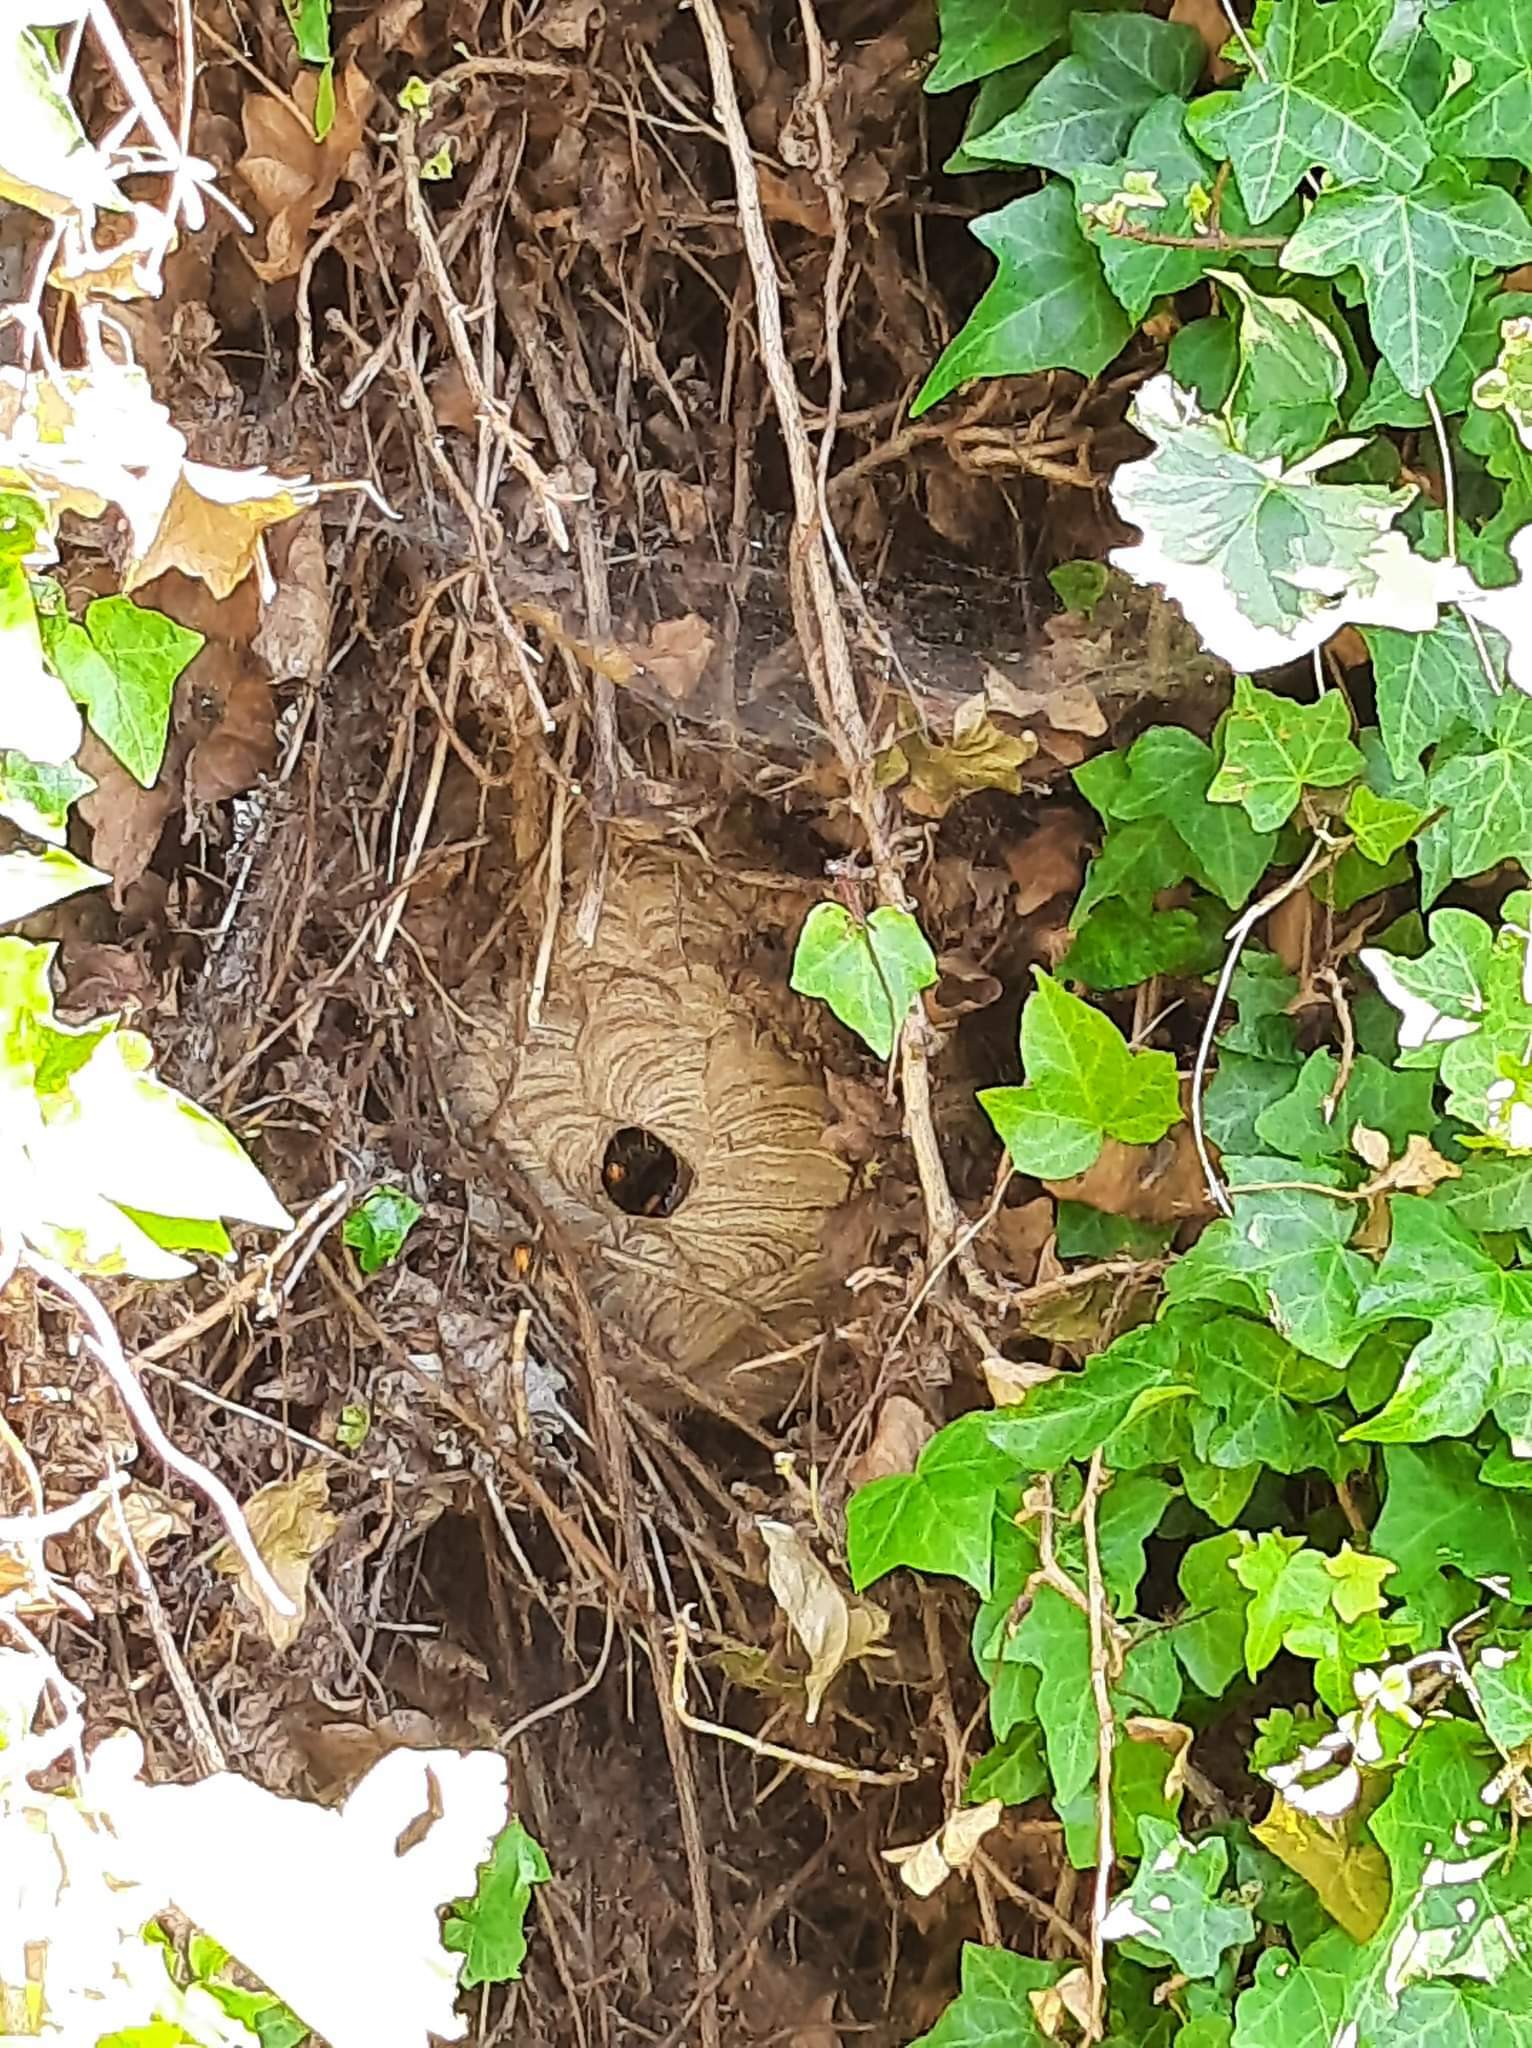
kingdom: Animalia
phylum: Arthropoda
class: Insecta
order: Hymenoptera
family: Vespidae
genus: Vespa
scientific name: Vespa velutina
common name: Asian hornet
